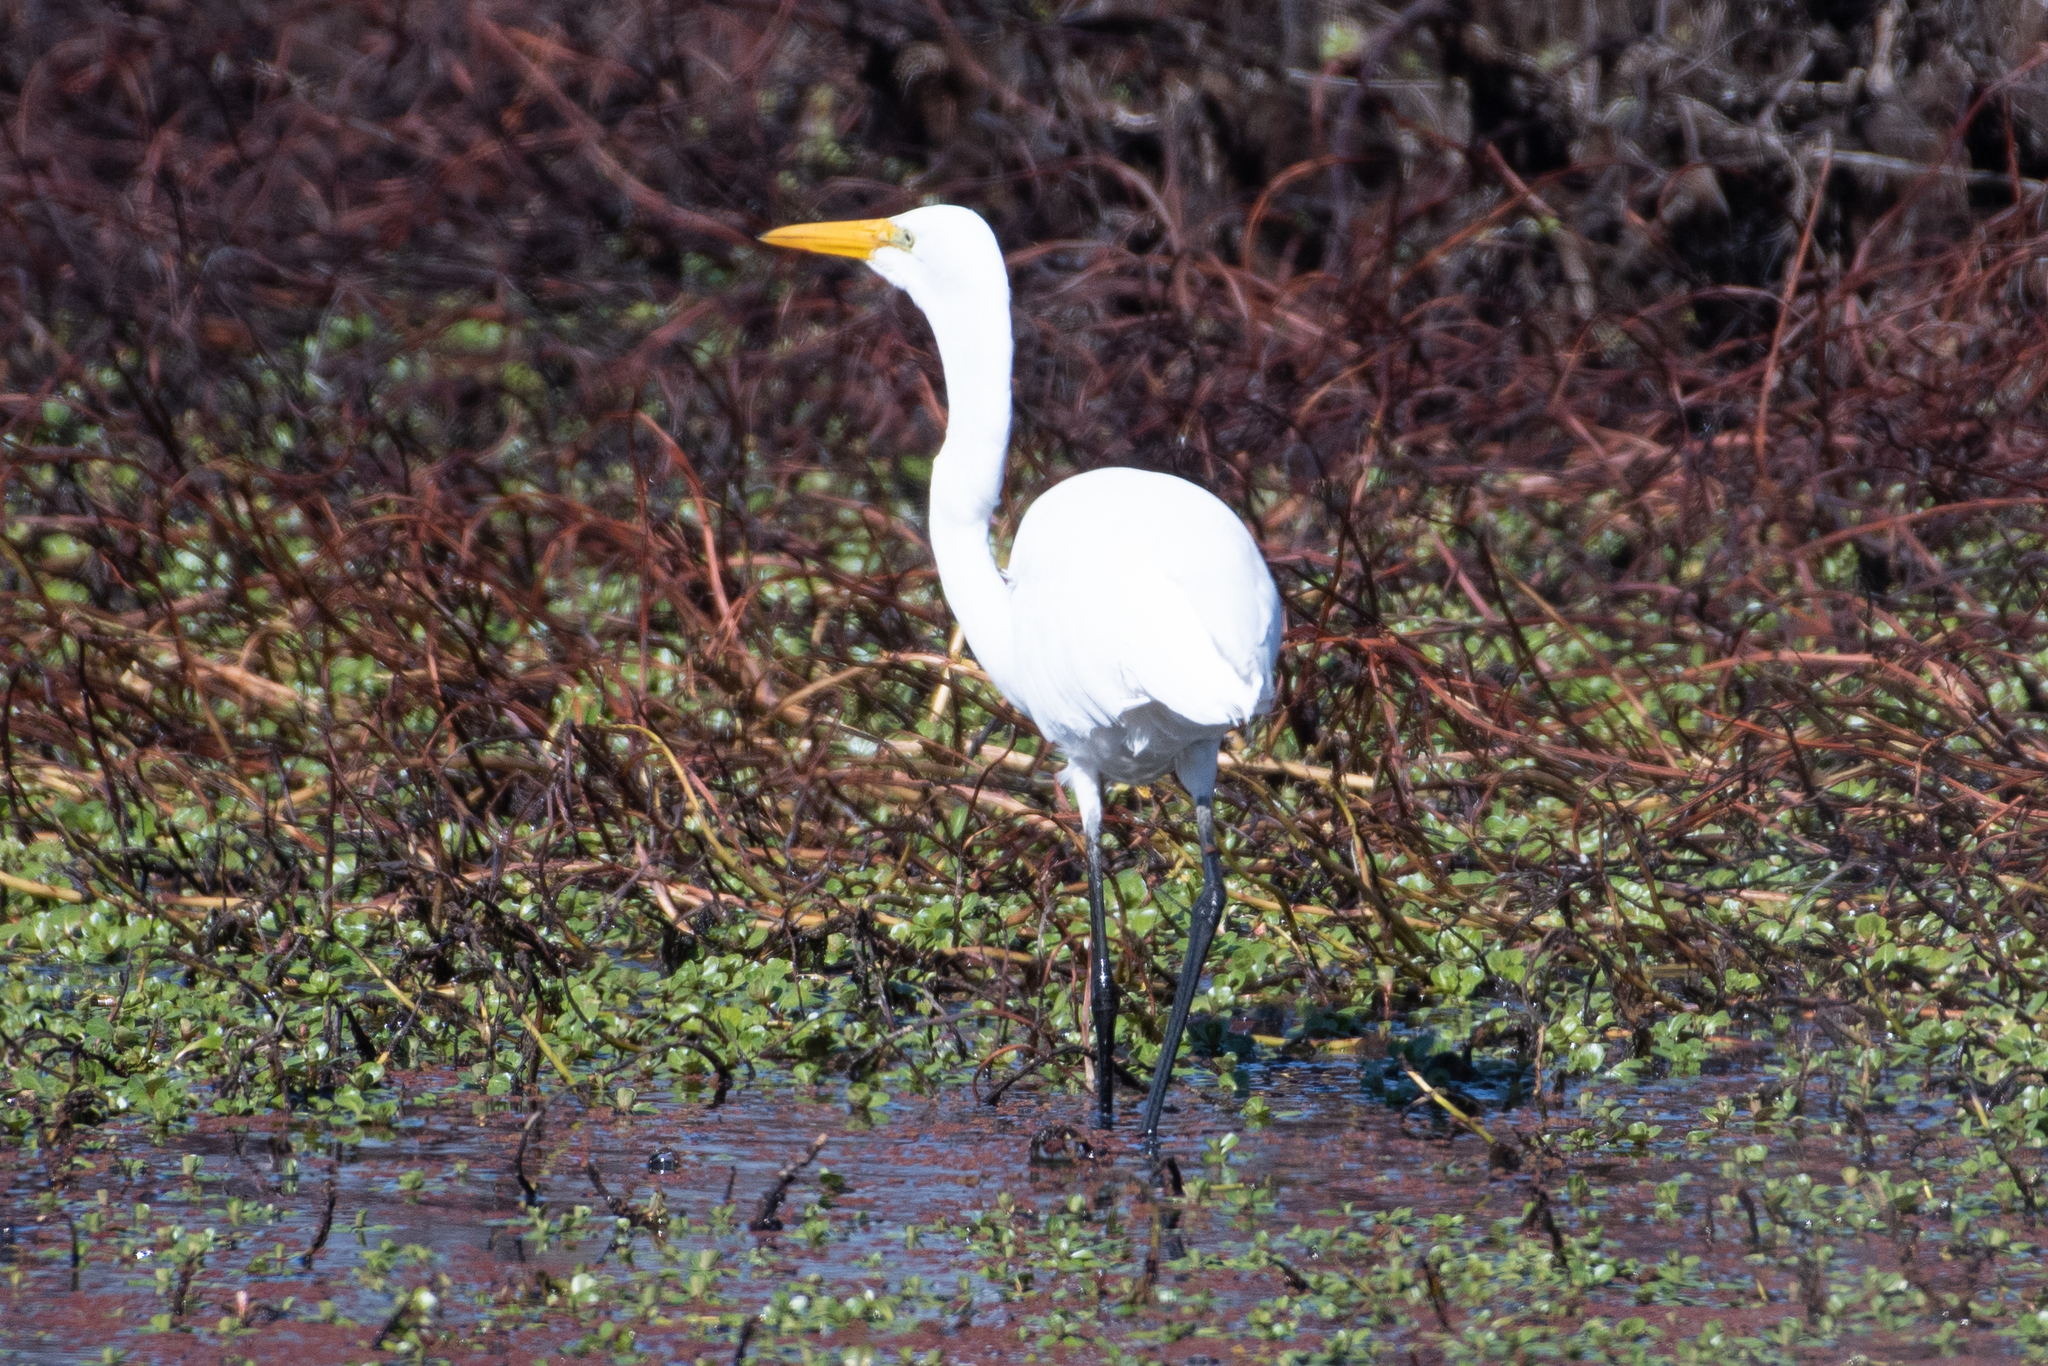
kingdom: Animalia
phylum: Chordata
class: Aves
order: Pelecaniformes
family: Ardeidae
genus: Ardea
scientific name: Ardea alba
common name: Great egret
